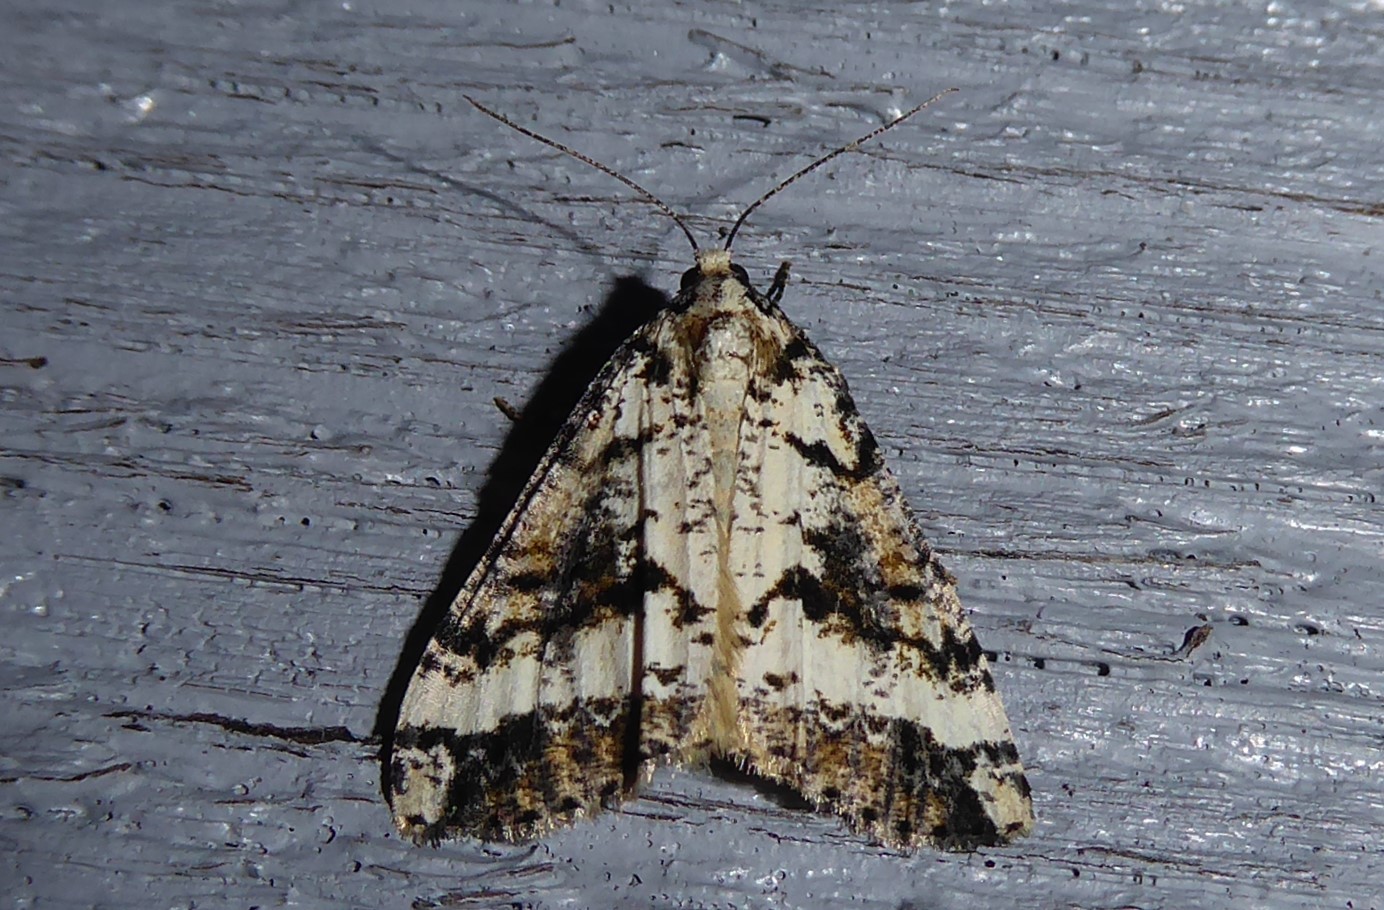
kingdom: Animalia
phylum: Arthropoda
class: Insecta
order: Lepidoptera
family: Geometridae
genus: Pseudocoremia
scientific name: Pseudocoremia leucelaea
